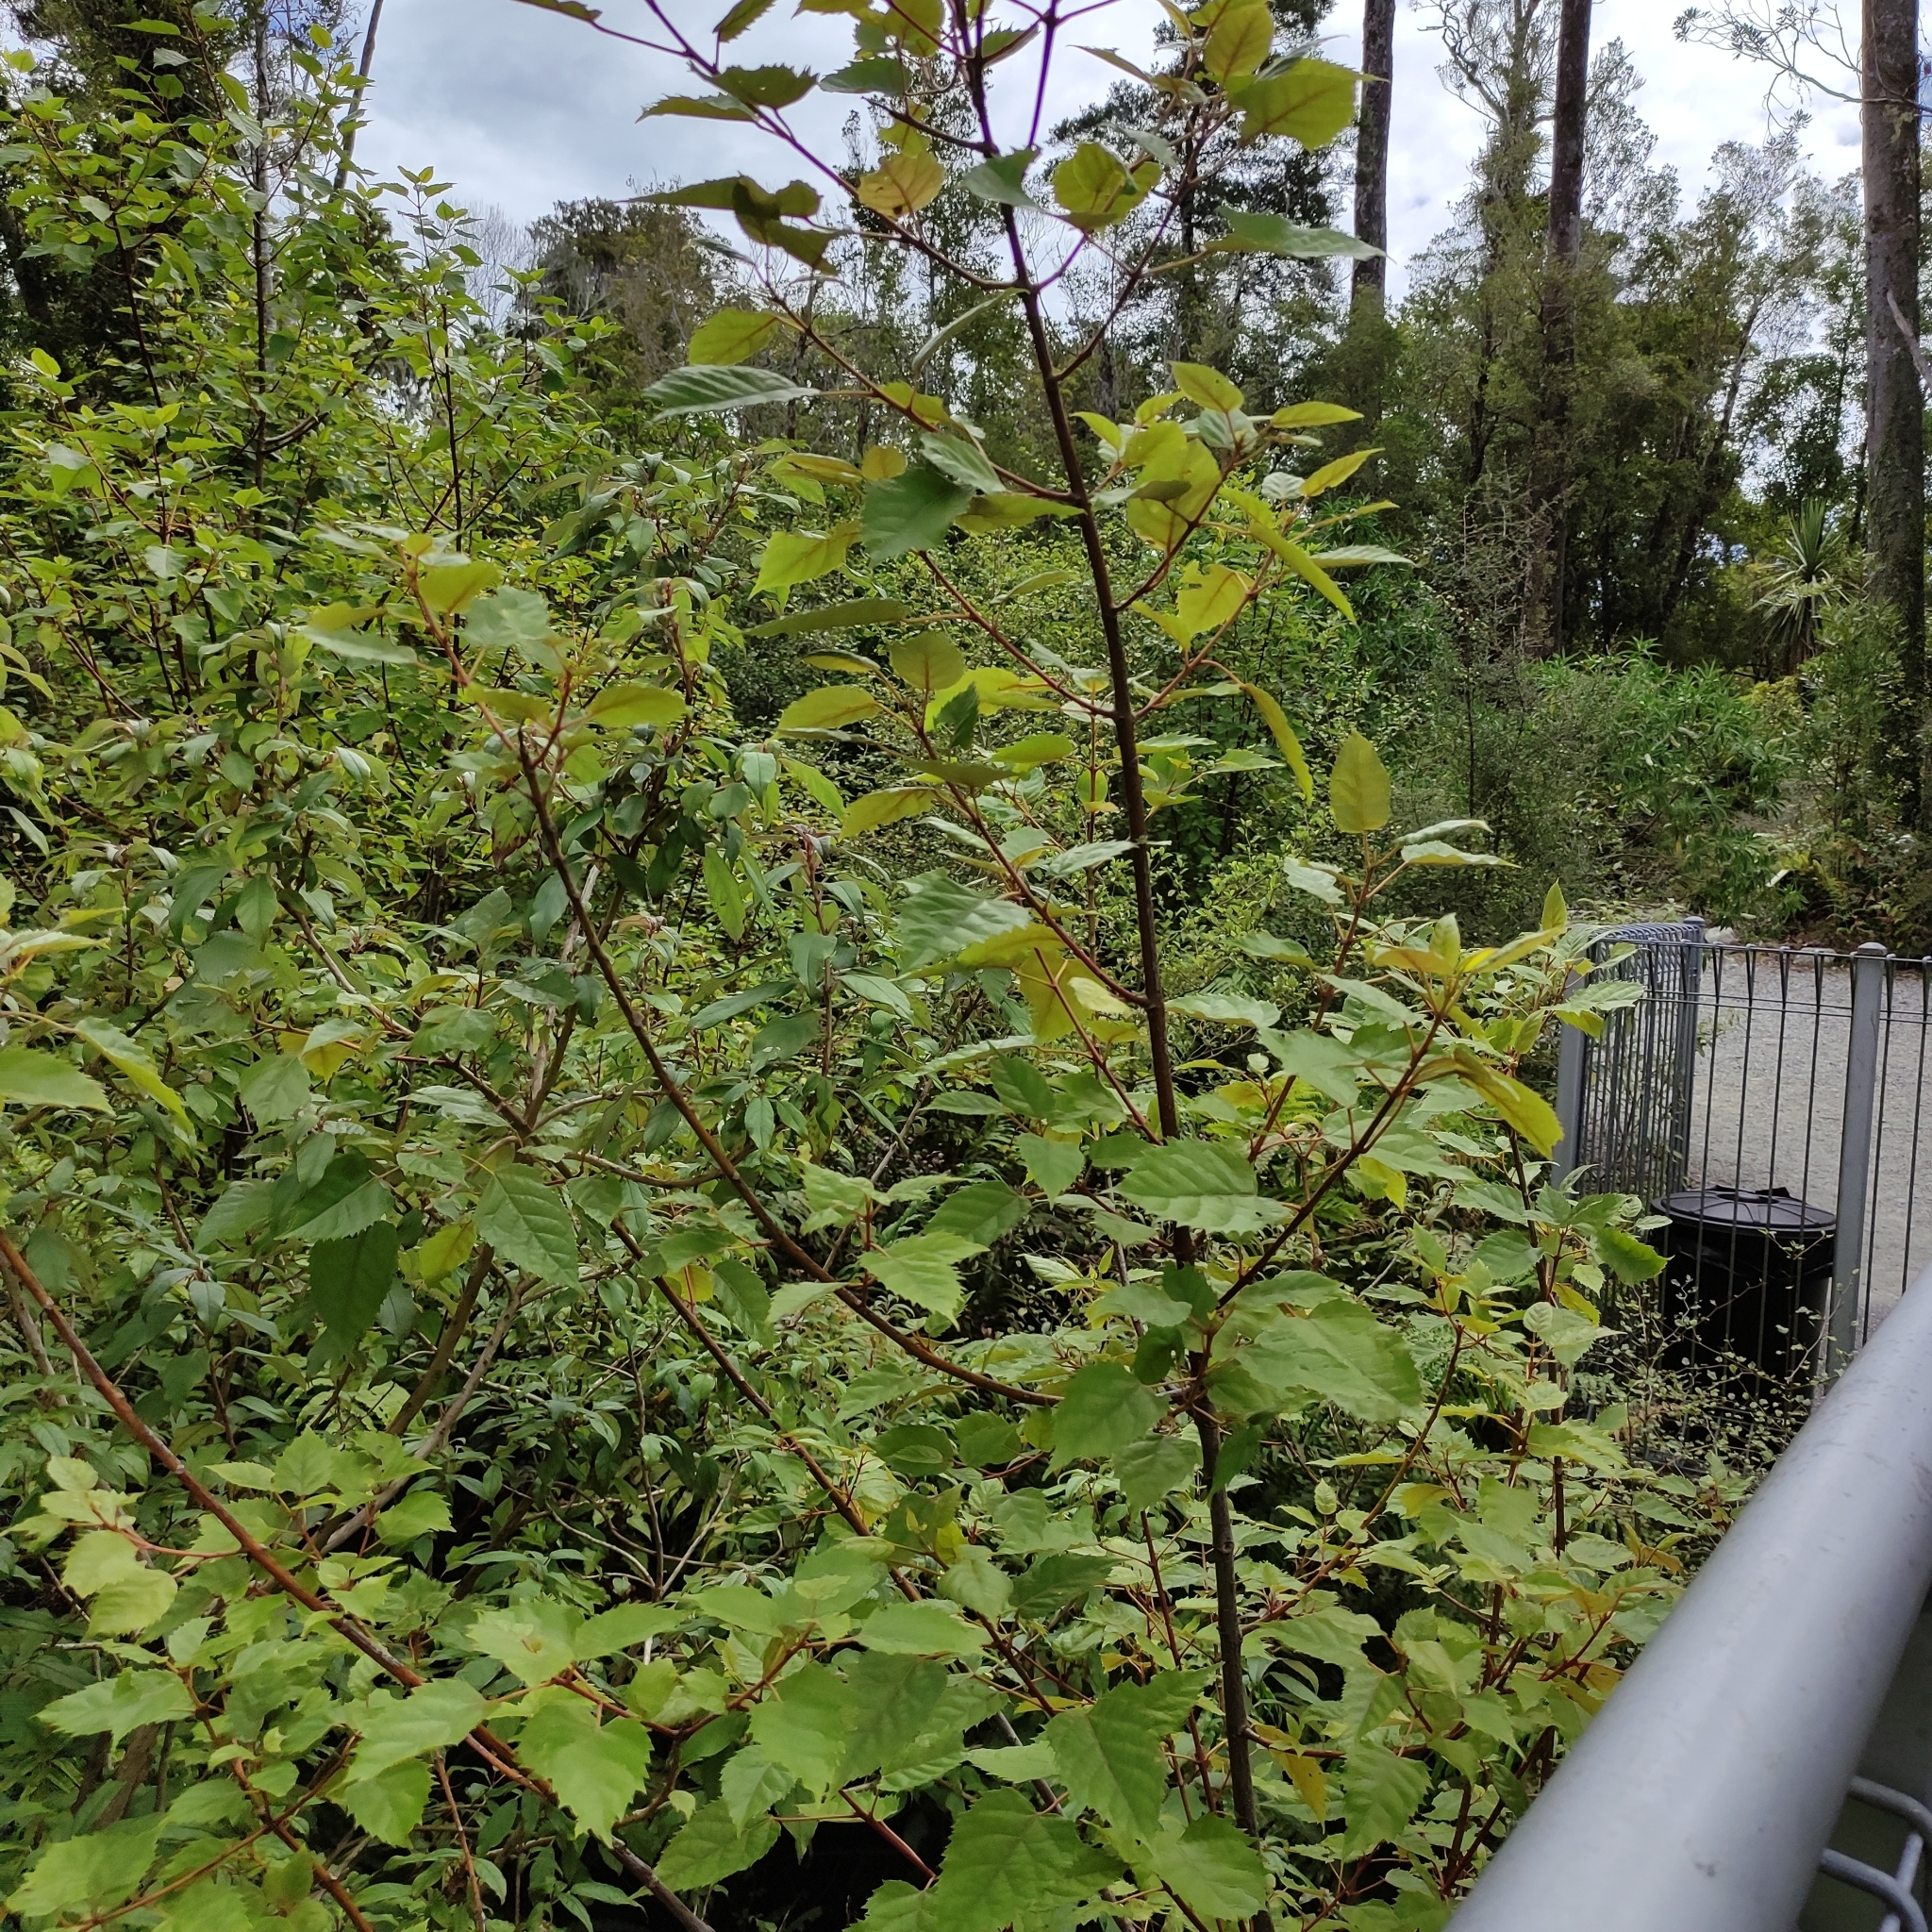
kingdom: Plantae
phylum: Tracheophyta
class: Magnoliopsida
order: Oxalidales
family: Elaeocarpaceae
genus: Aristotelia
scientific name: Aristotelia serrata
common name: New zealand wineberry
